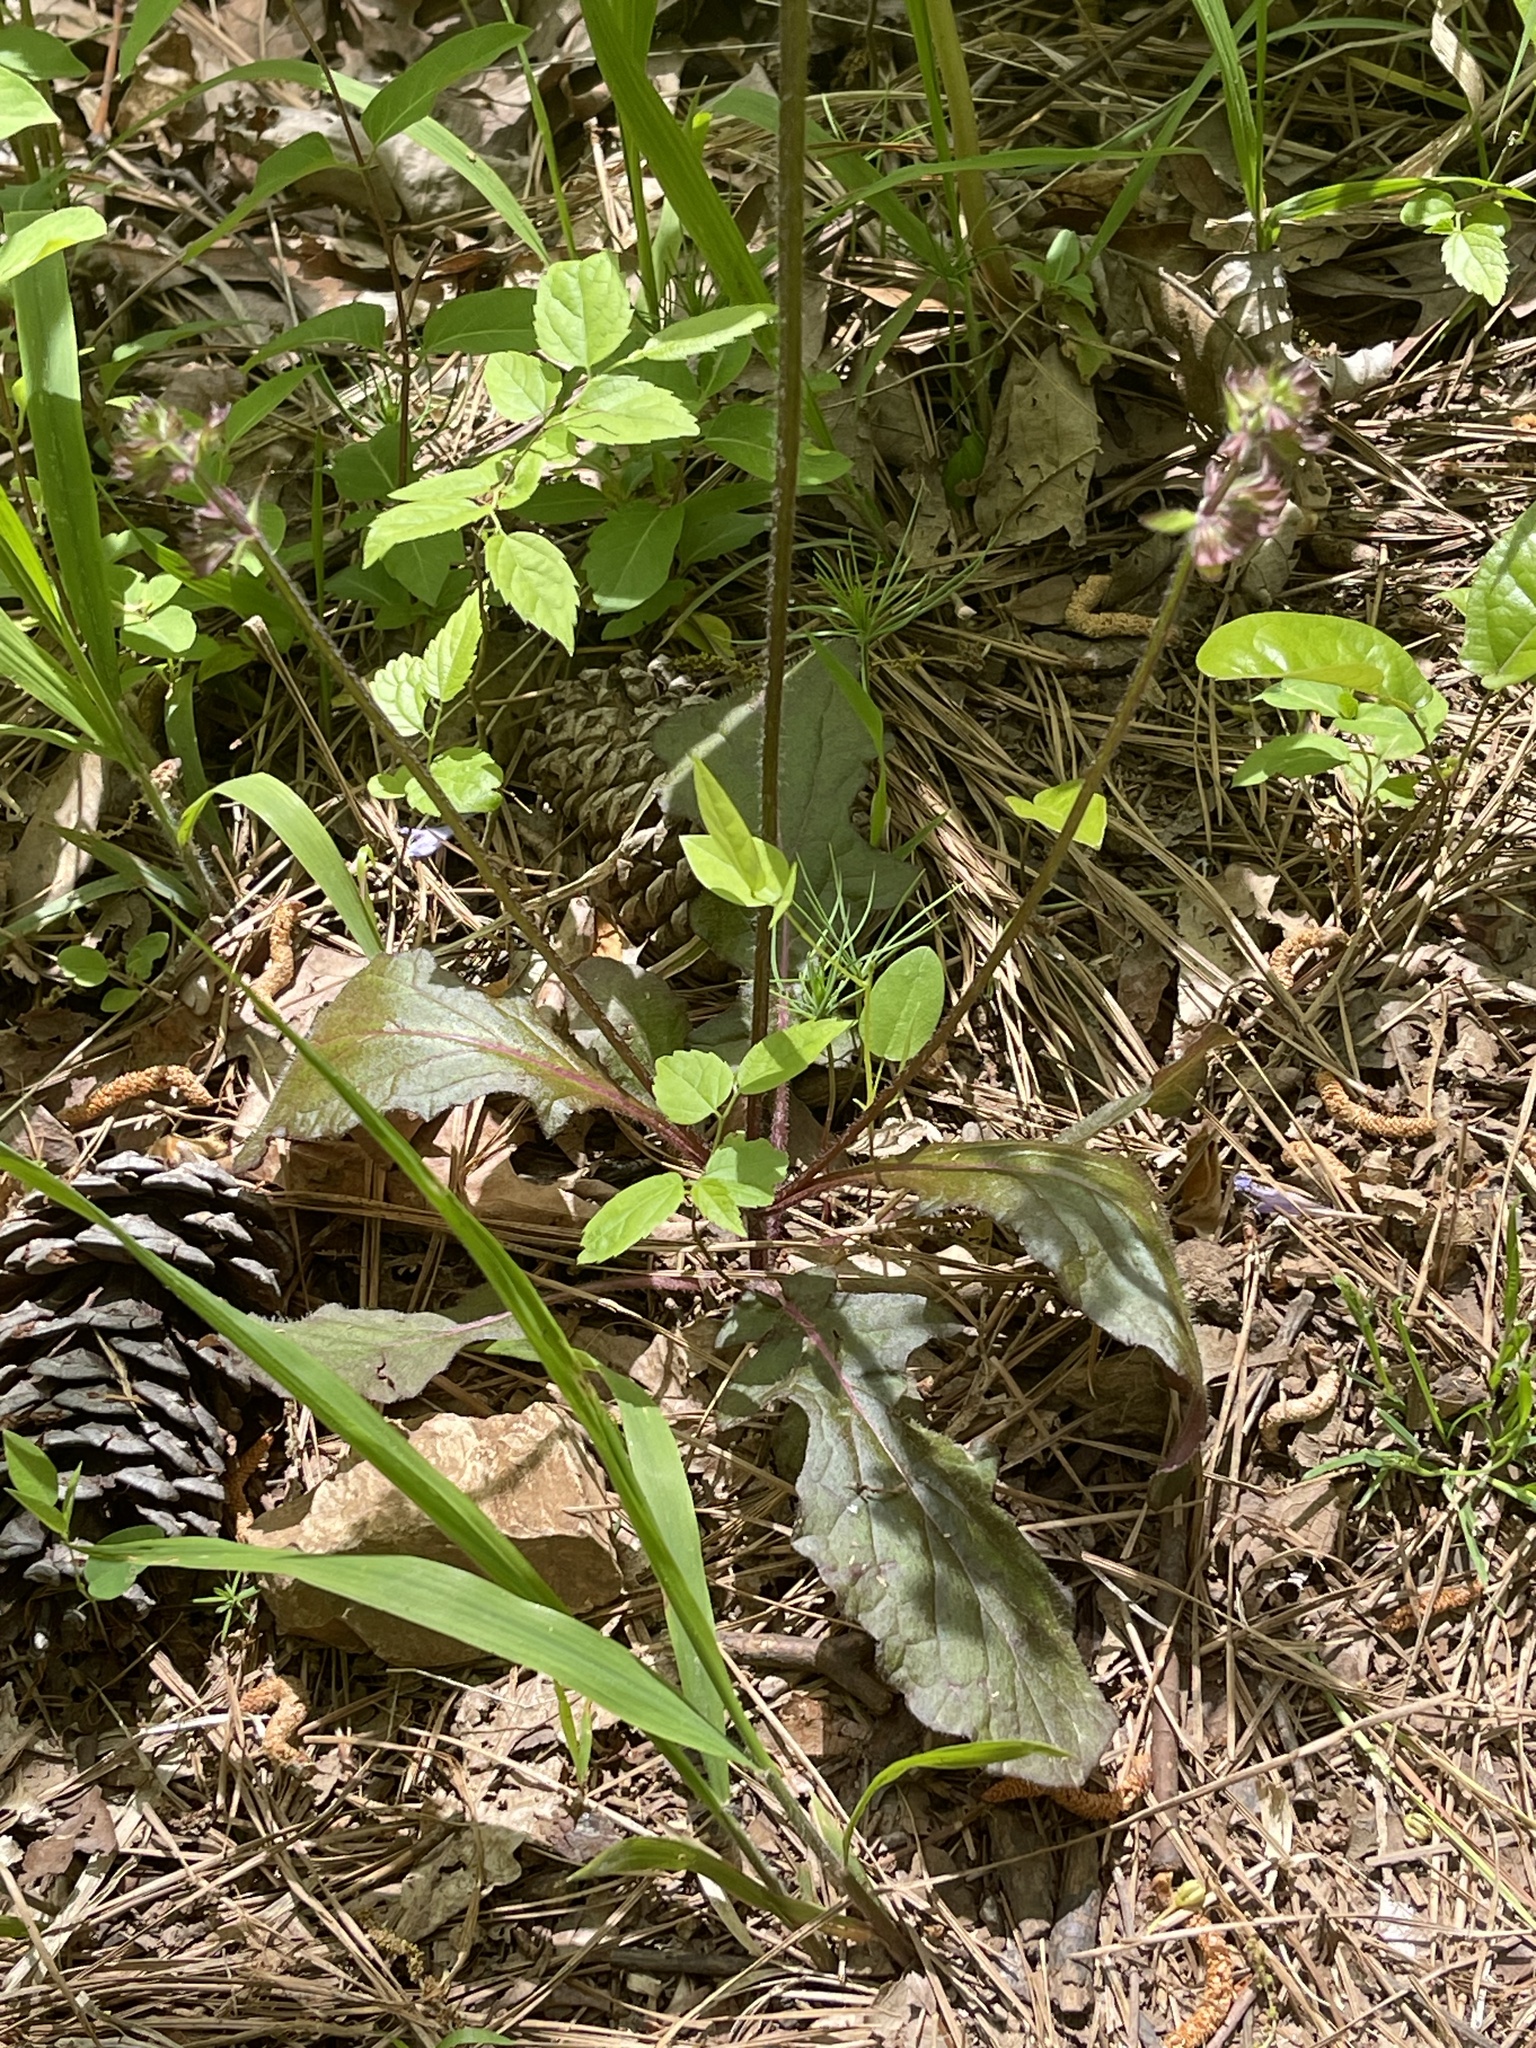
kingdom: Plantae
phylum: Tracheophyta
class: Magnoliopsida
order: Lamiales
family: Lamiaceae
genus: Salvia
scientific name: Salvia lyrata
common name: Cancerweed
